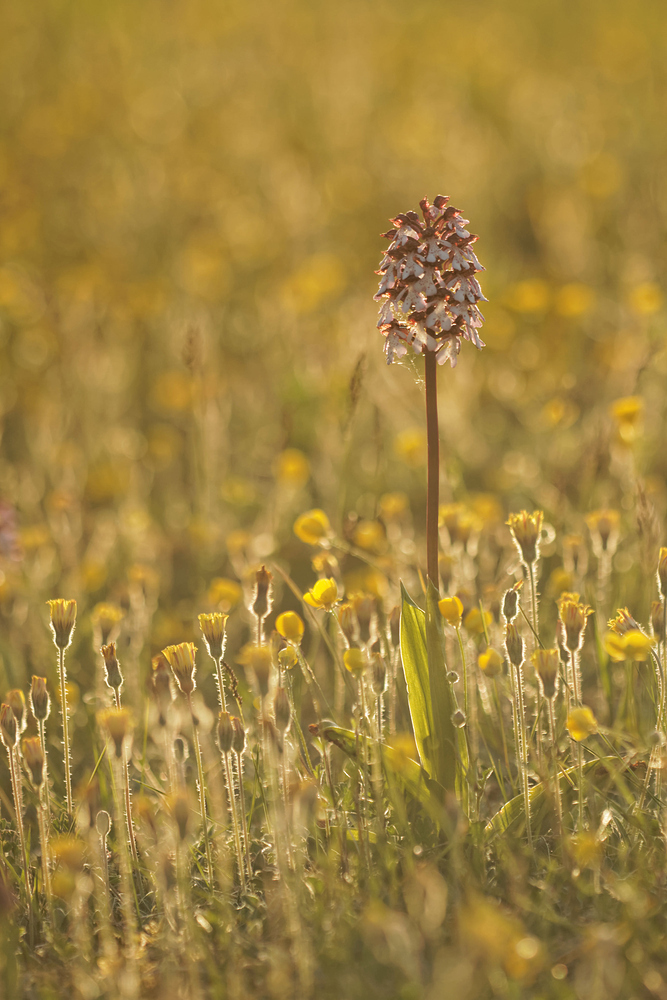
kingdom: Plantae
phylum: Tracheophyta
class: Liliopsida
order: Asparagales
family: Orchidaceae
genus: Orchis
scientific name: Orchis purpurea
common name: Lady orchid
